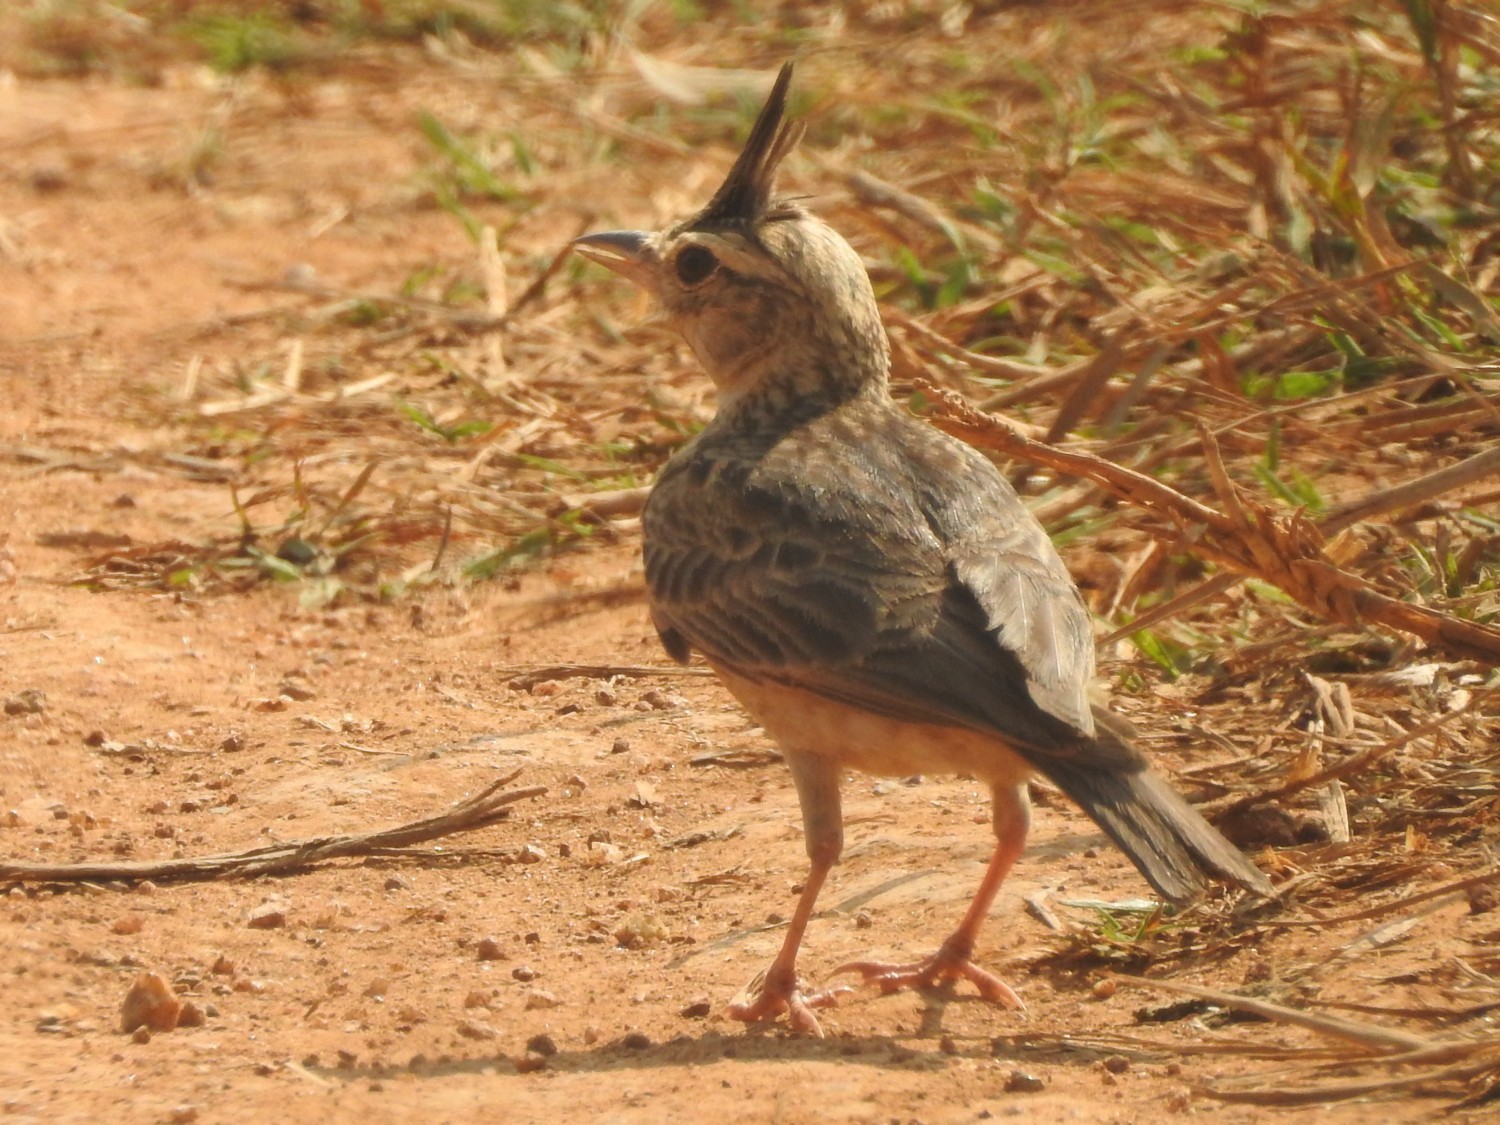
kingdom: Animalia
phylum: Chordata
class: Aves
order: Passeriformes
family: Alaudidae
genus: Galerida
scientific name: Galerida malabarica
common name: Malabar lark
